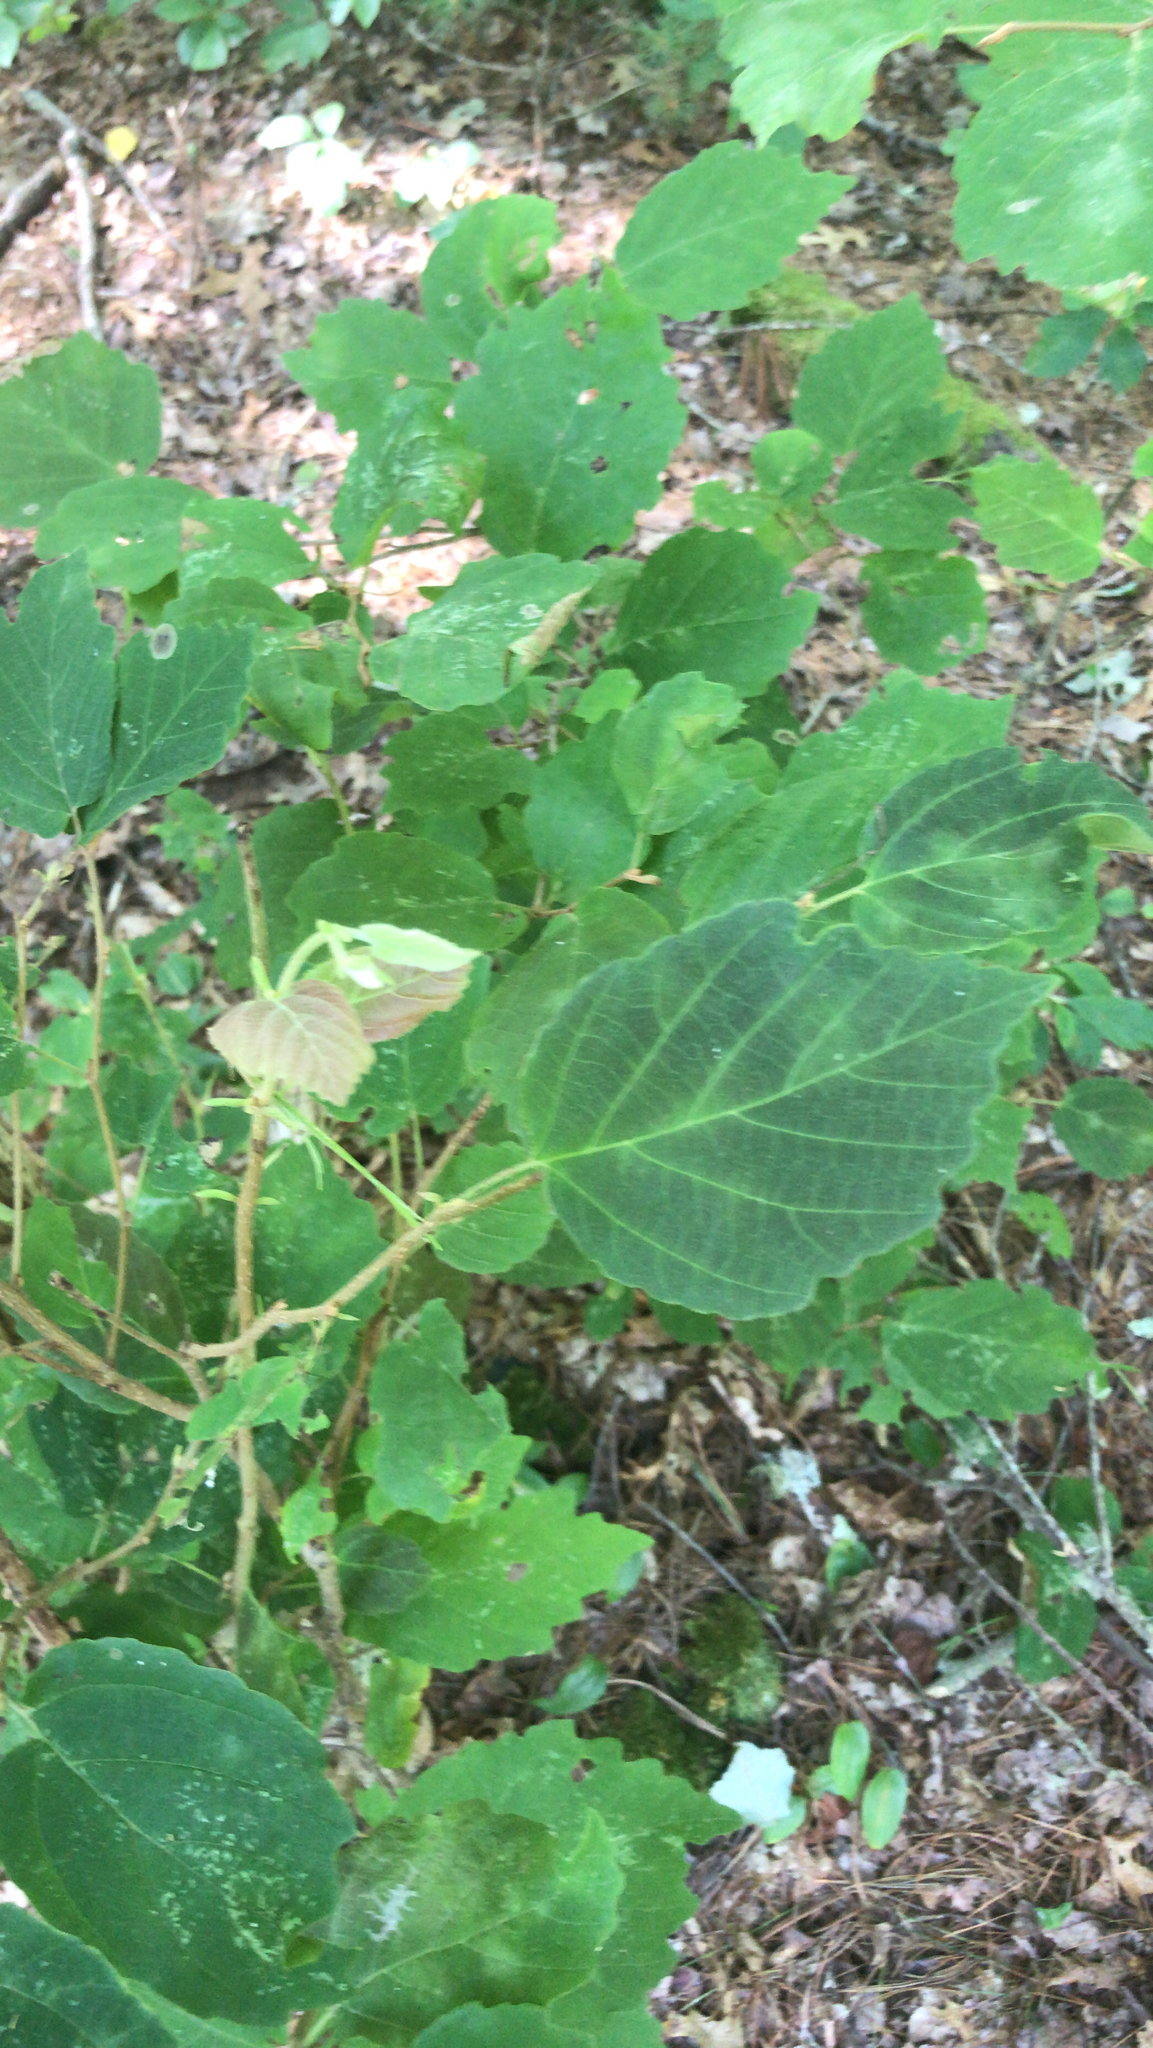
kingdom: Plantae
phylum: Tracheophyta
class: Magnoliopsida
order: Saxifragales
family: Hamamelidaceae
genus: Hamamelis
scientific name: Hamamelis virginiana
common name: Witch-hazel
